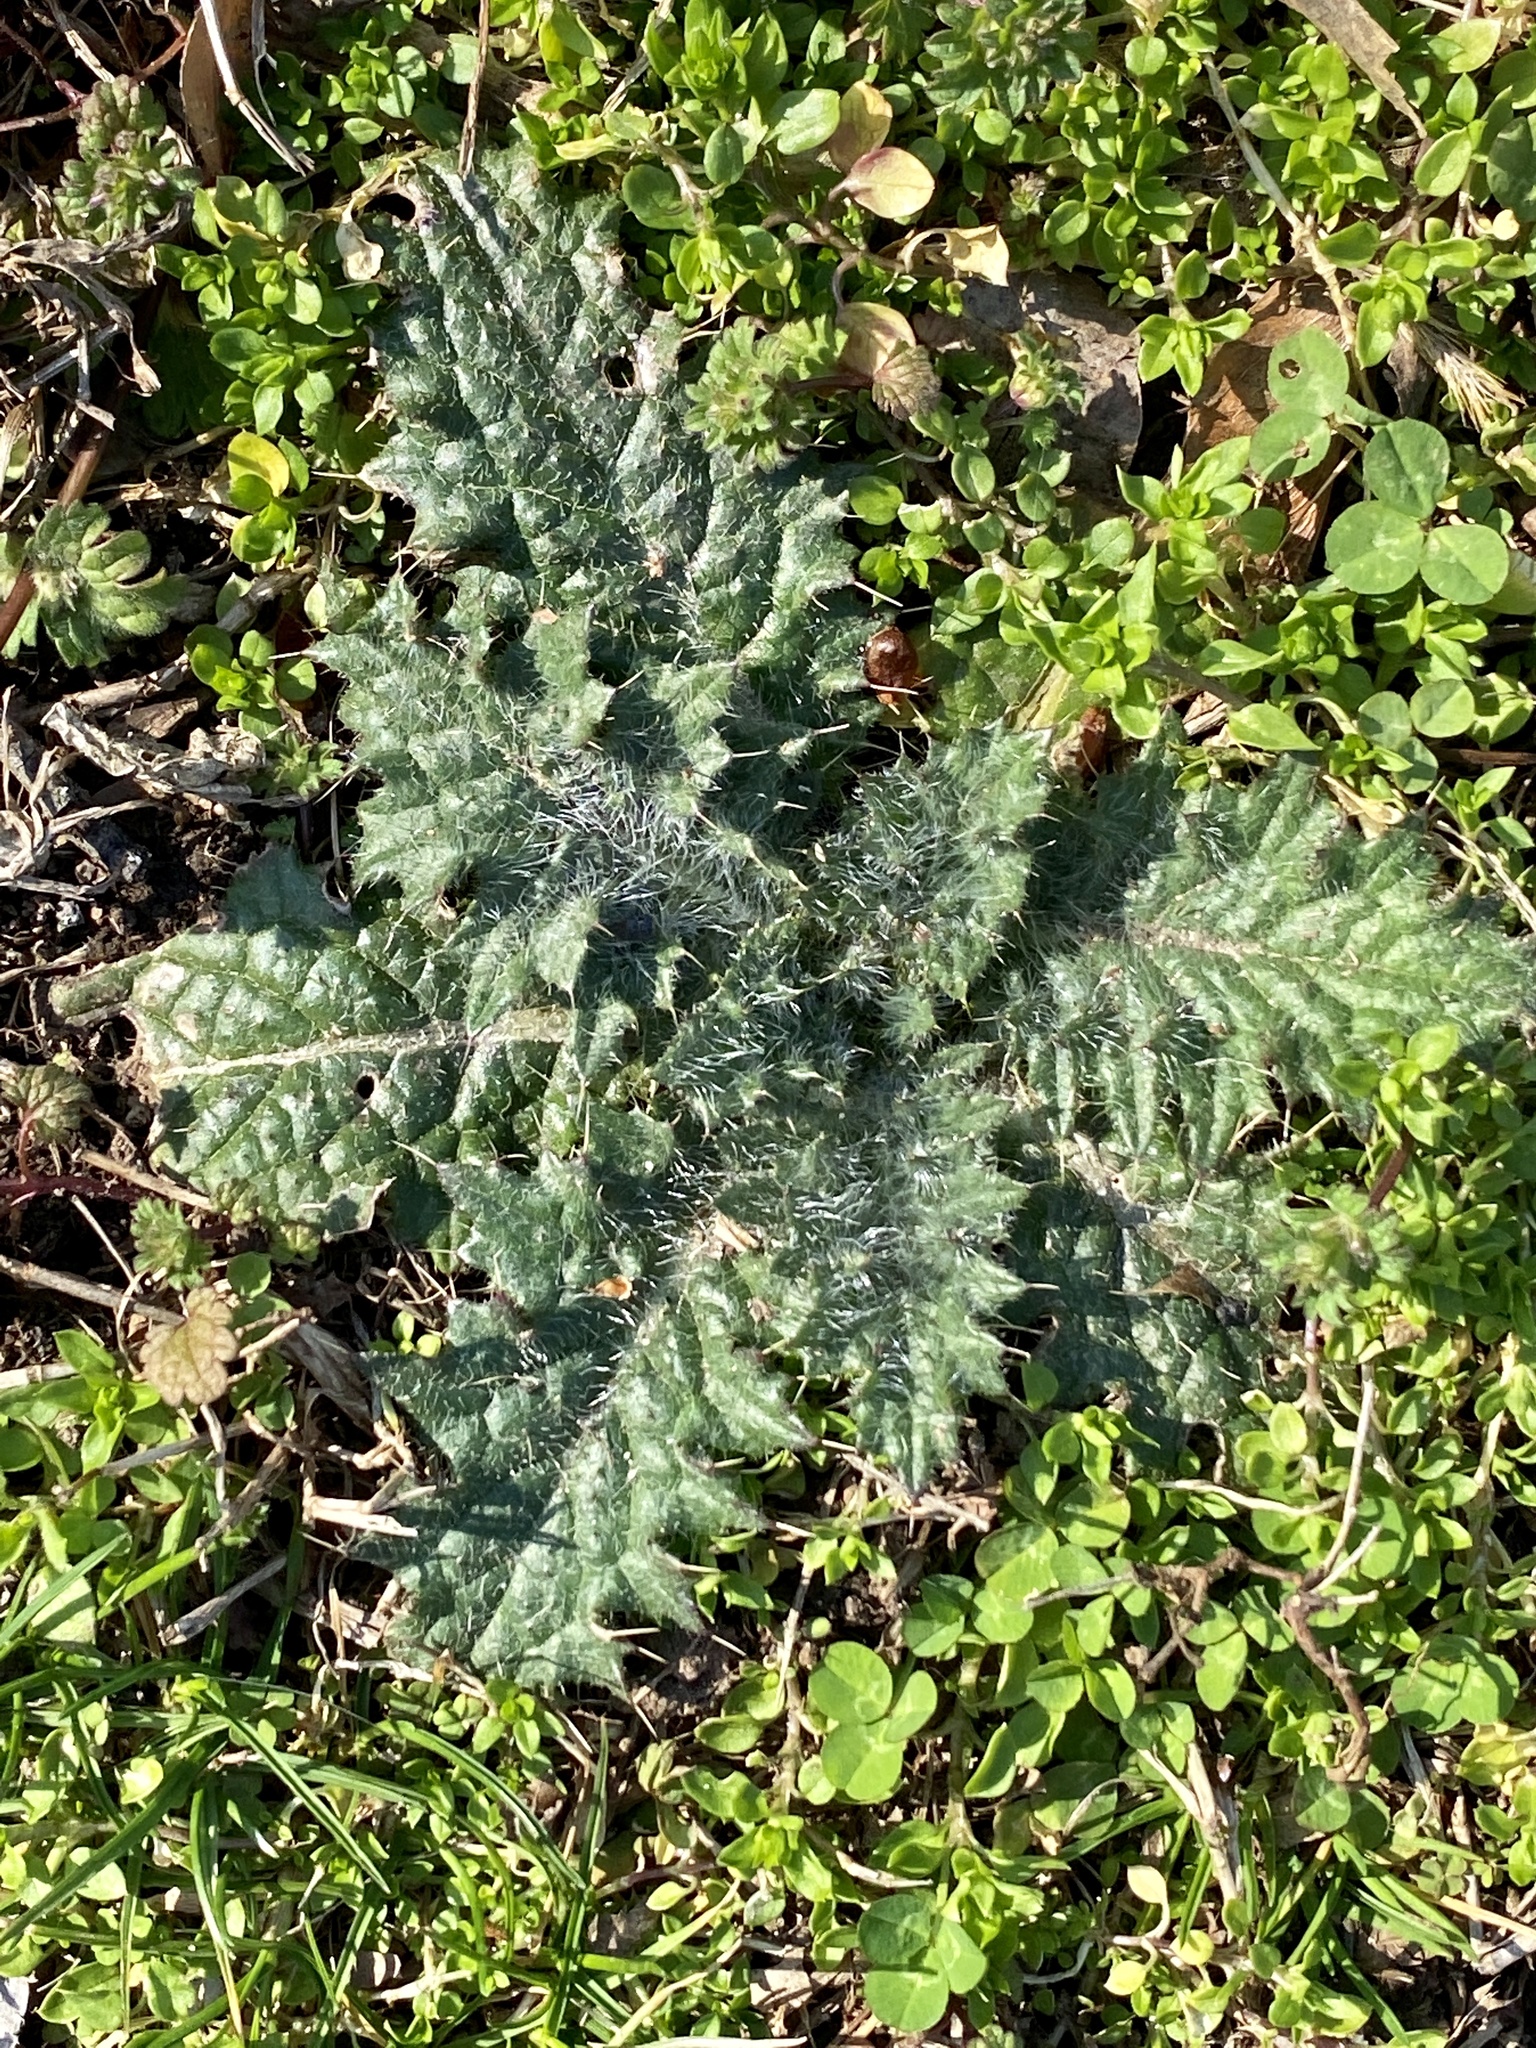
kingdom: Plantae
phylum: Tracheophyta
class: Magnoliopsida
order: Asterales
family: Asteraceae
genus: Cirsium
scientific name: Cirsium vulgare
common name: Bull thistle
